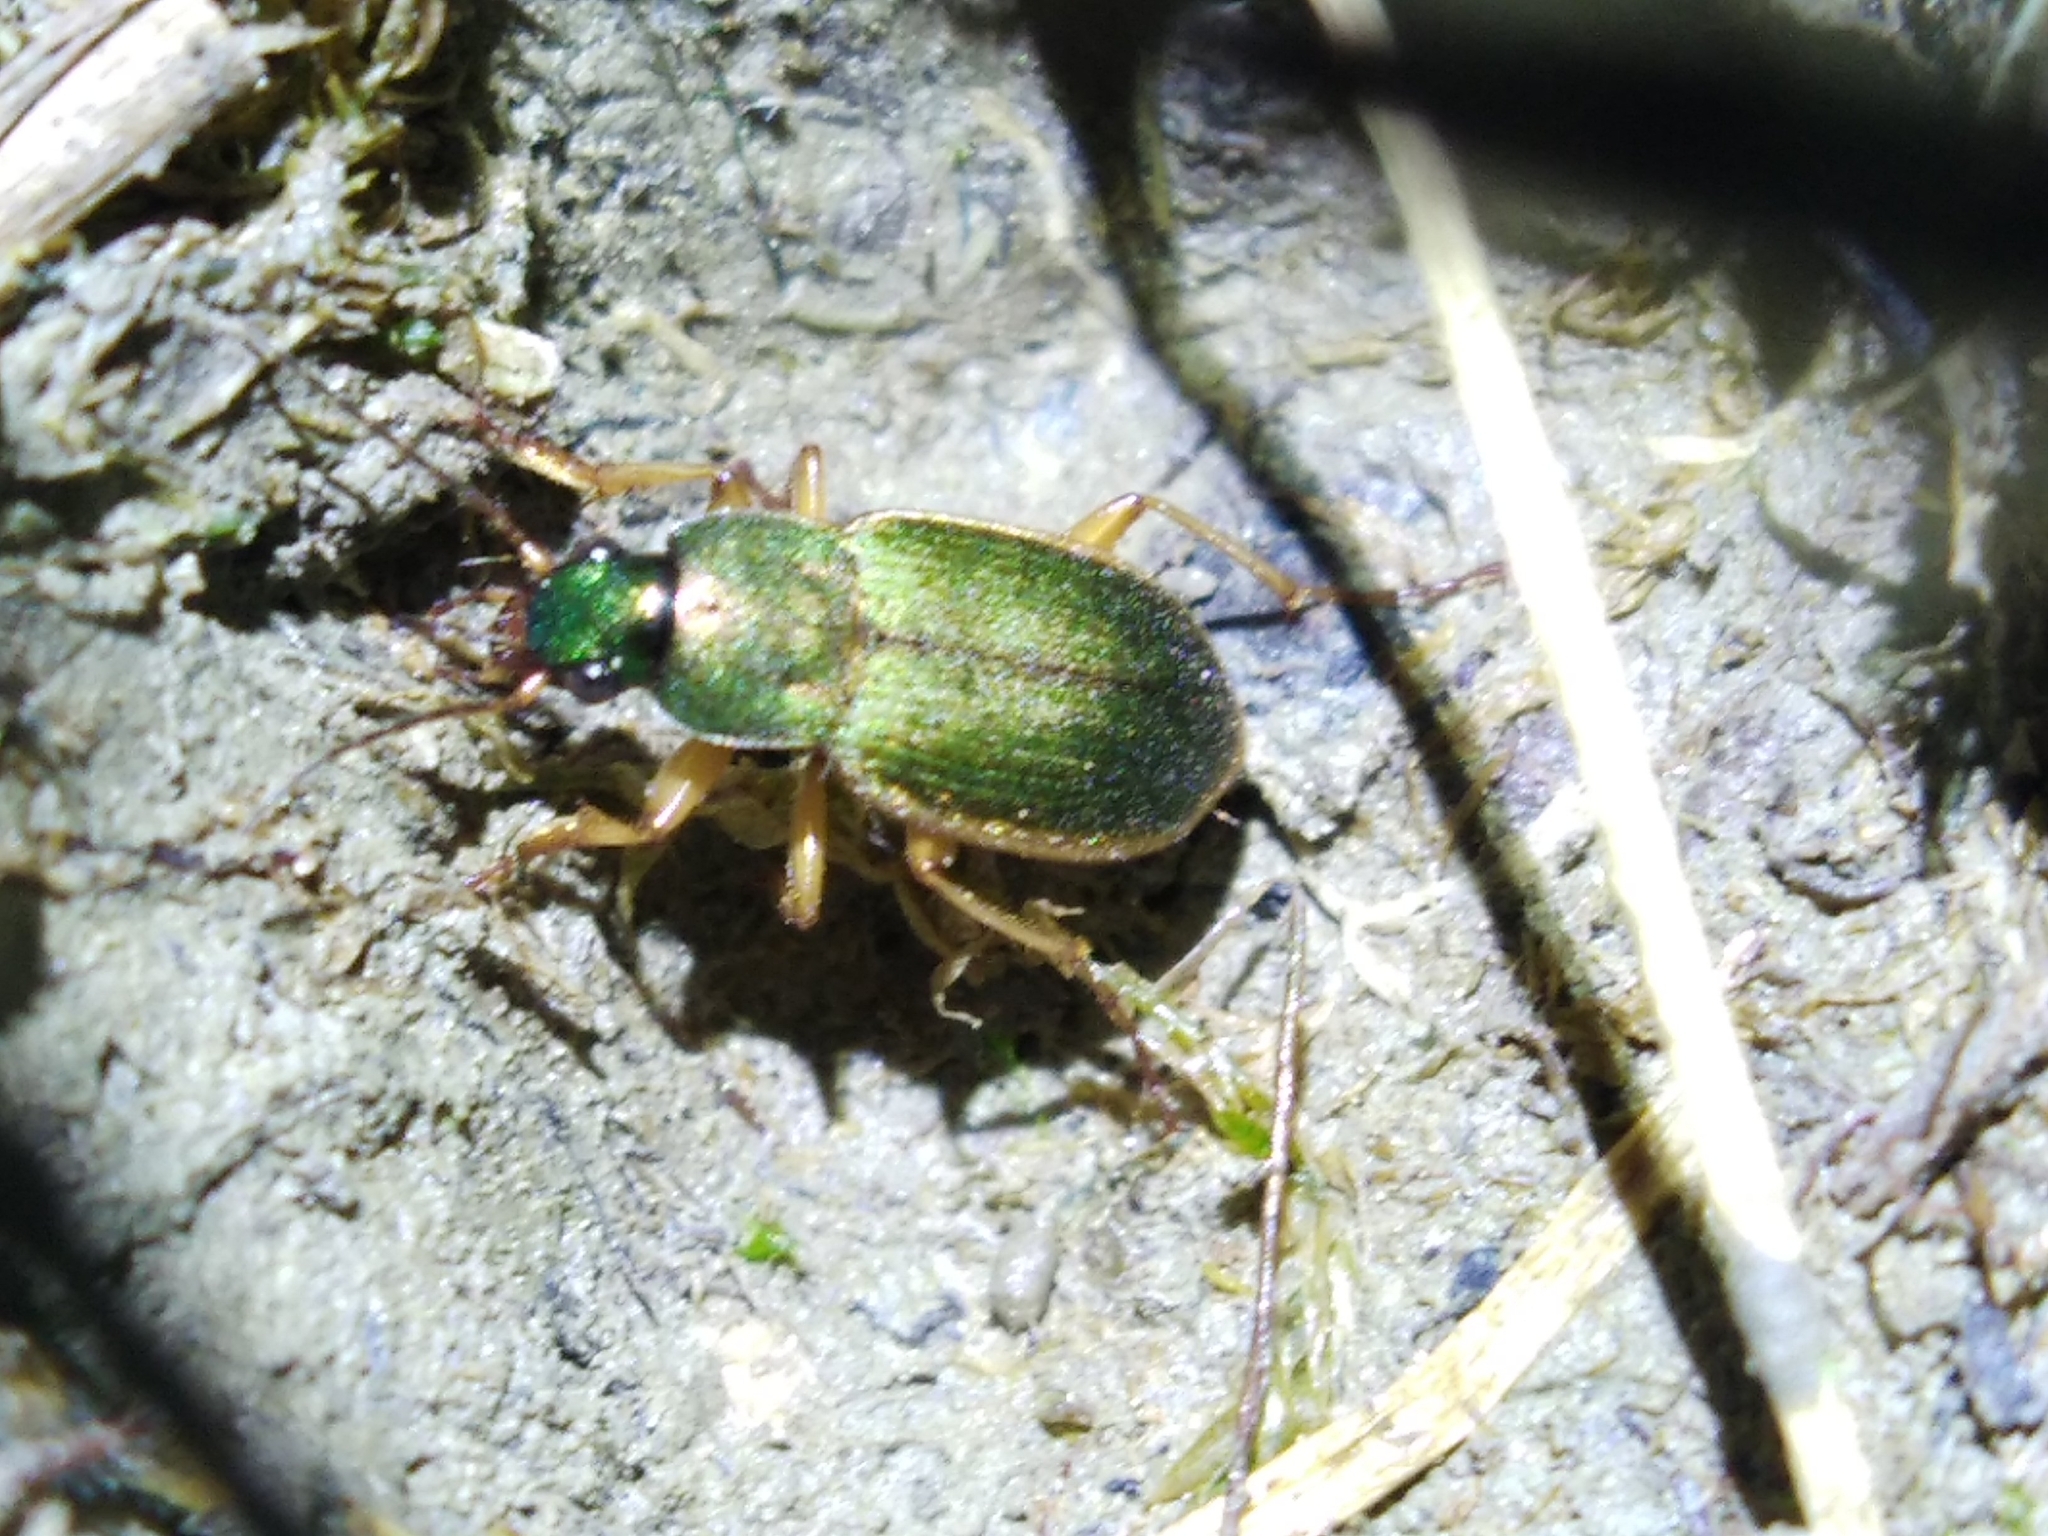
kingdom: Animalia
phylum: Arthropoda
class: Insecta
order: Coleoptera
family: Carabidae
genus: Chlaenius
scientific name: Chlaenius olivieri
